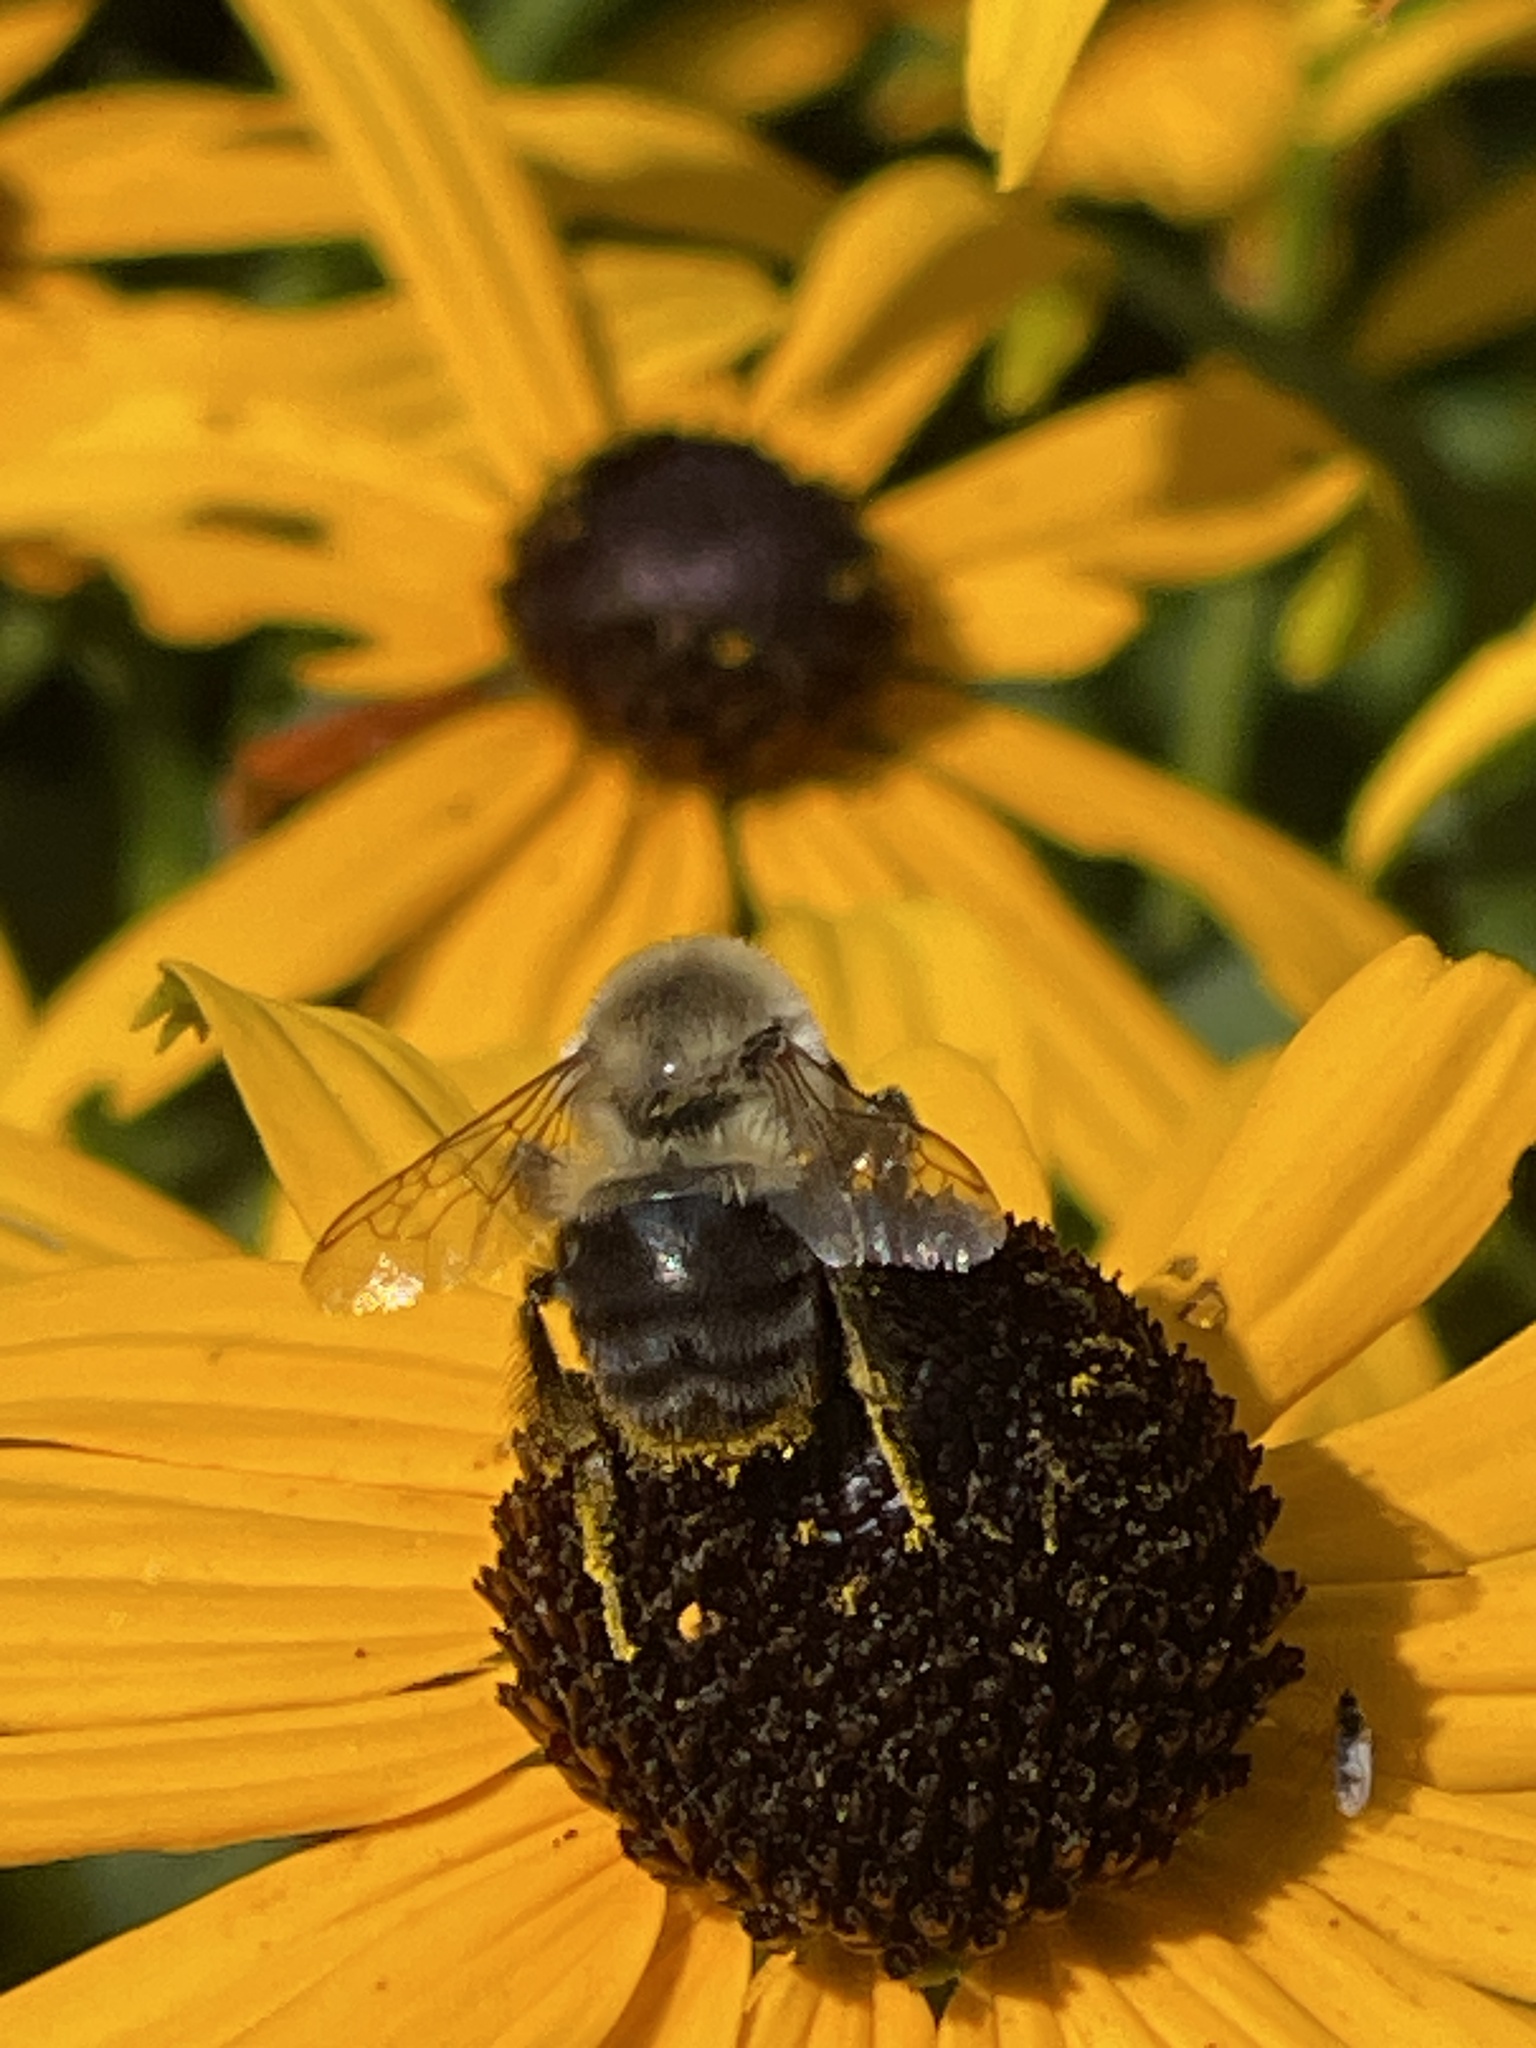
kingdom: Animalia
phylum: Arthropoda
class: Insecta
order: Hymenoptera
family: Apidae
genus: Bombus
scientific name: Bombus impatiens
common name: Common eastern bumble bee
